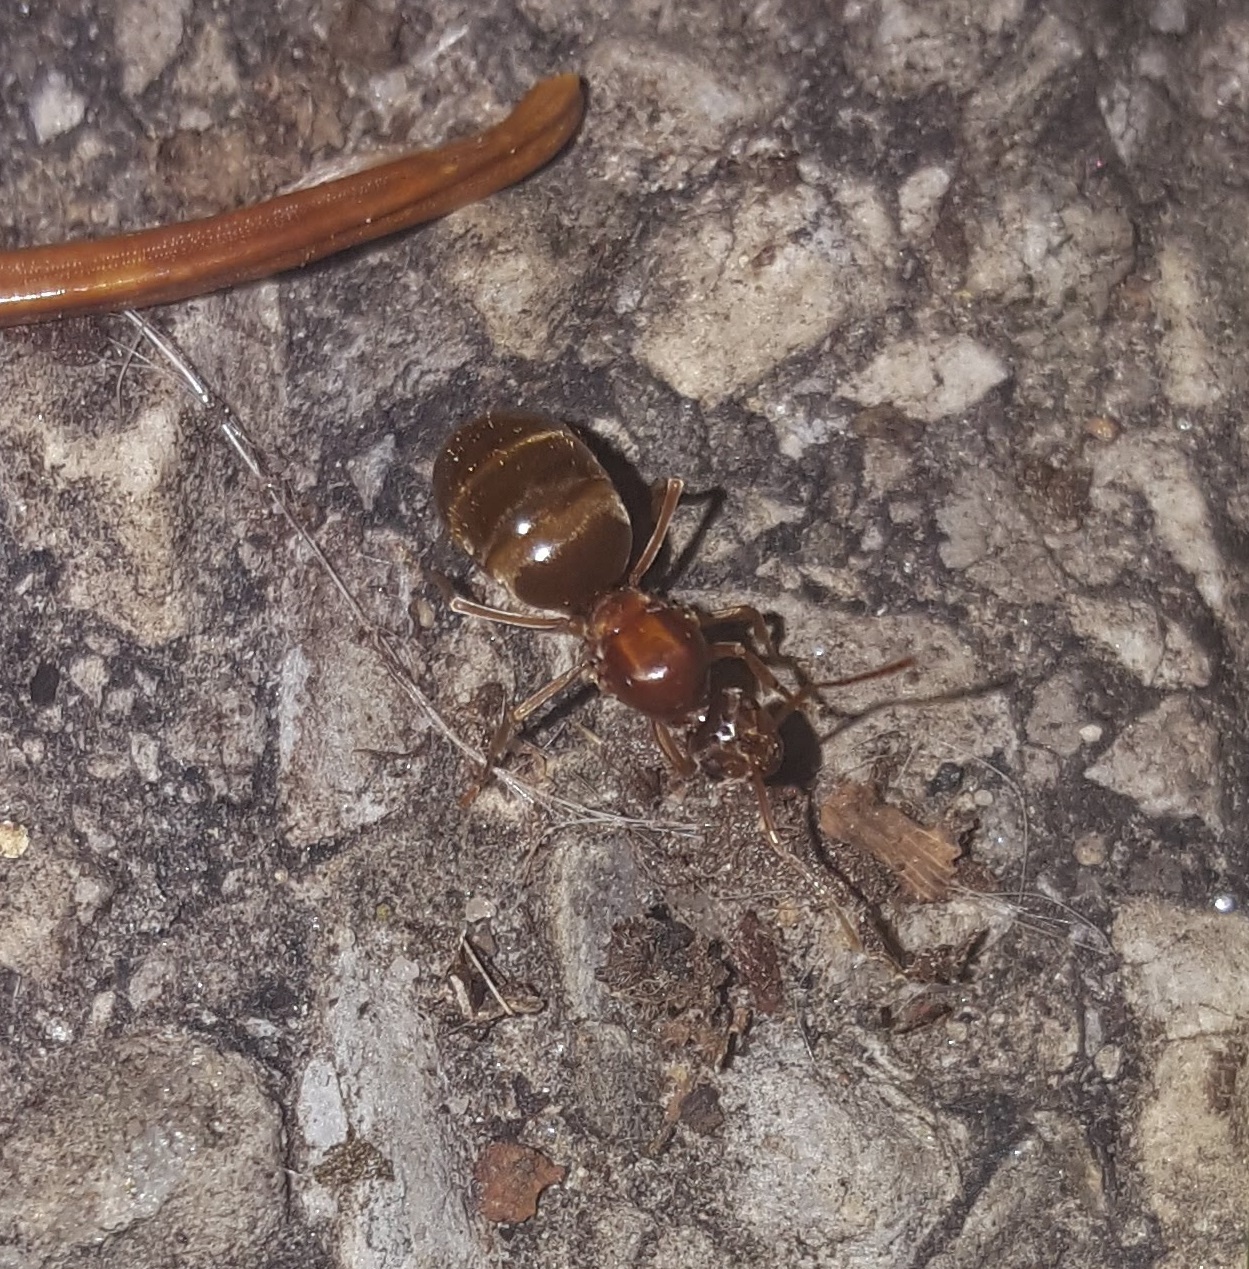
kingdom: Animalia
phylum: Arthropoda
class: Insecta
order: Hymenoptera
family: Formicidae
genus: Prenolepis
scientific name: Prenolepis imparis
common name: Small honey ant
